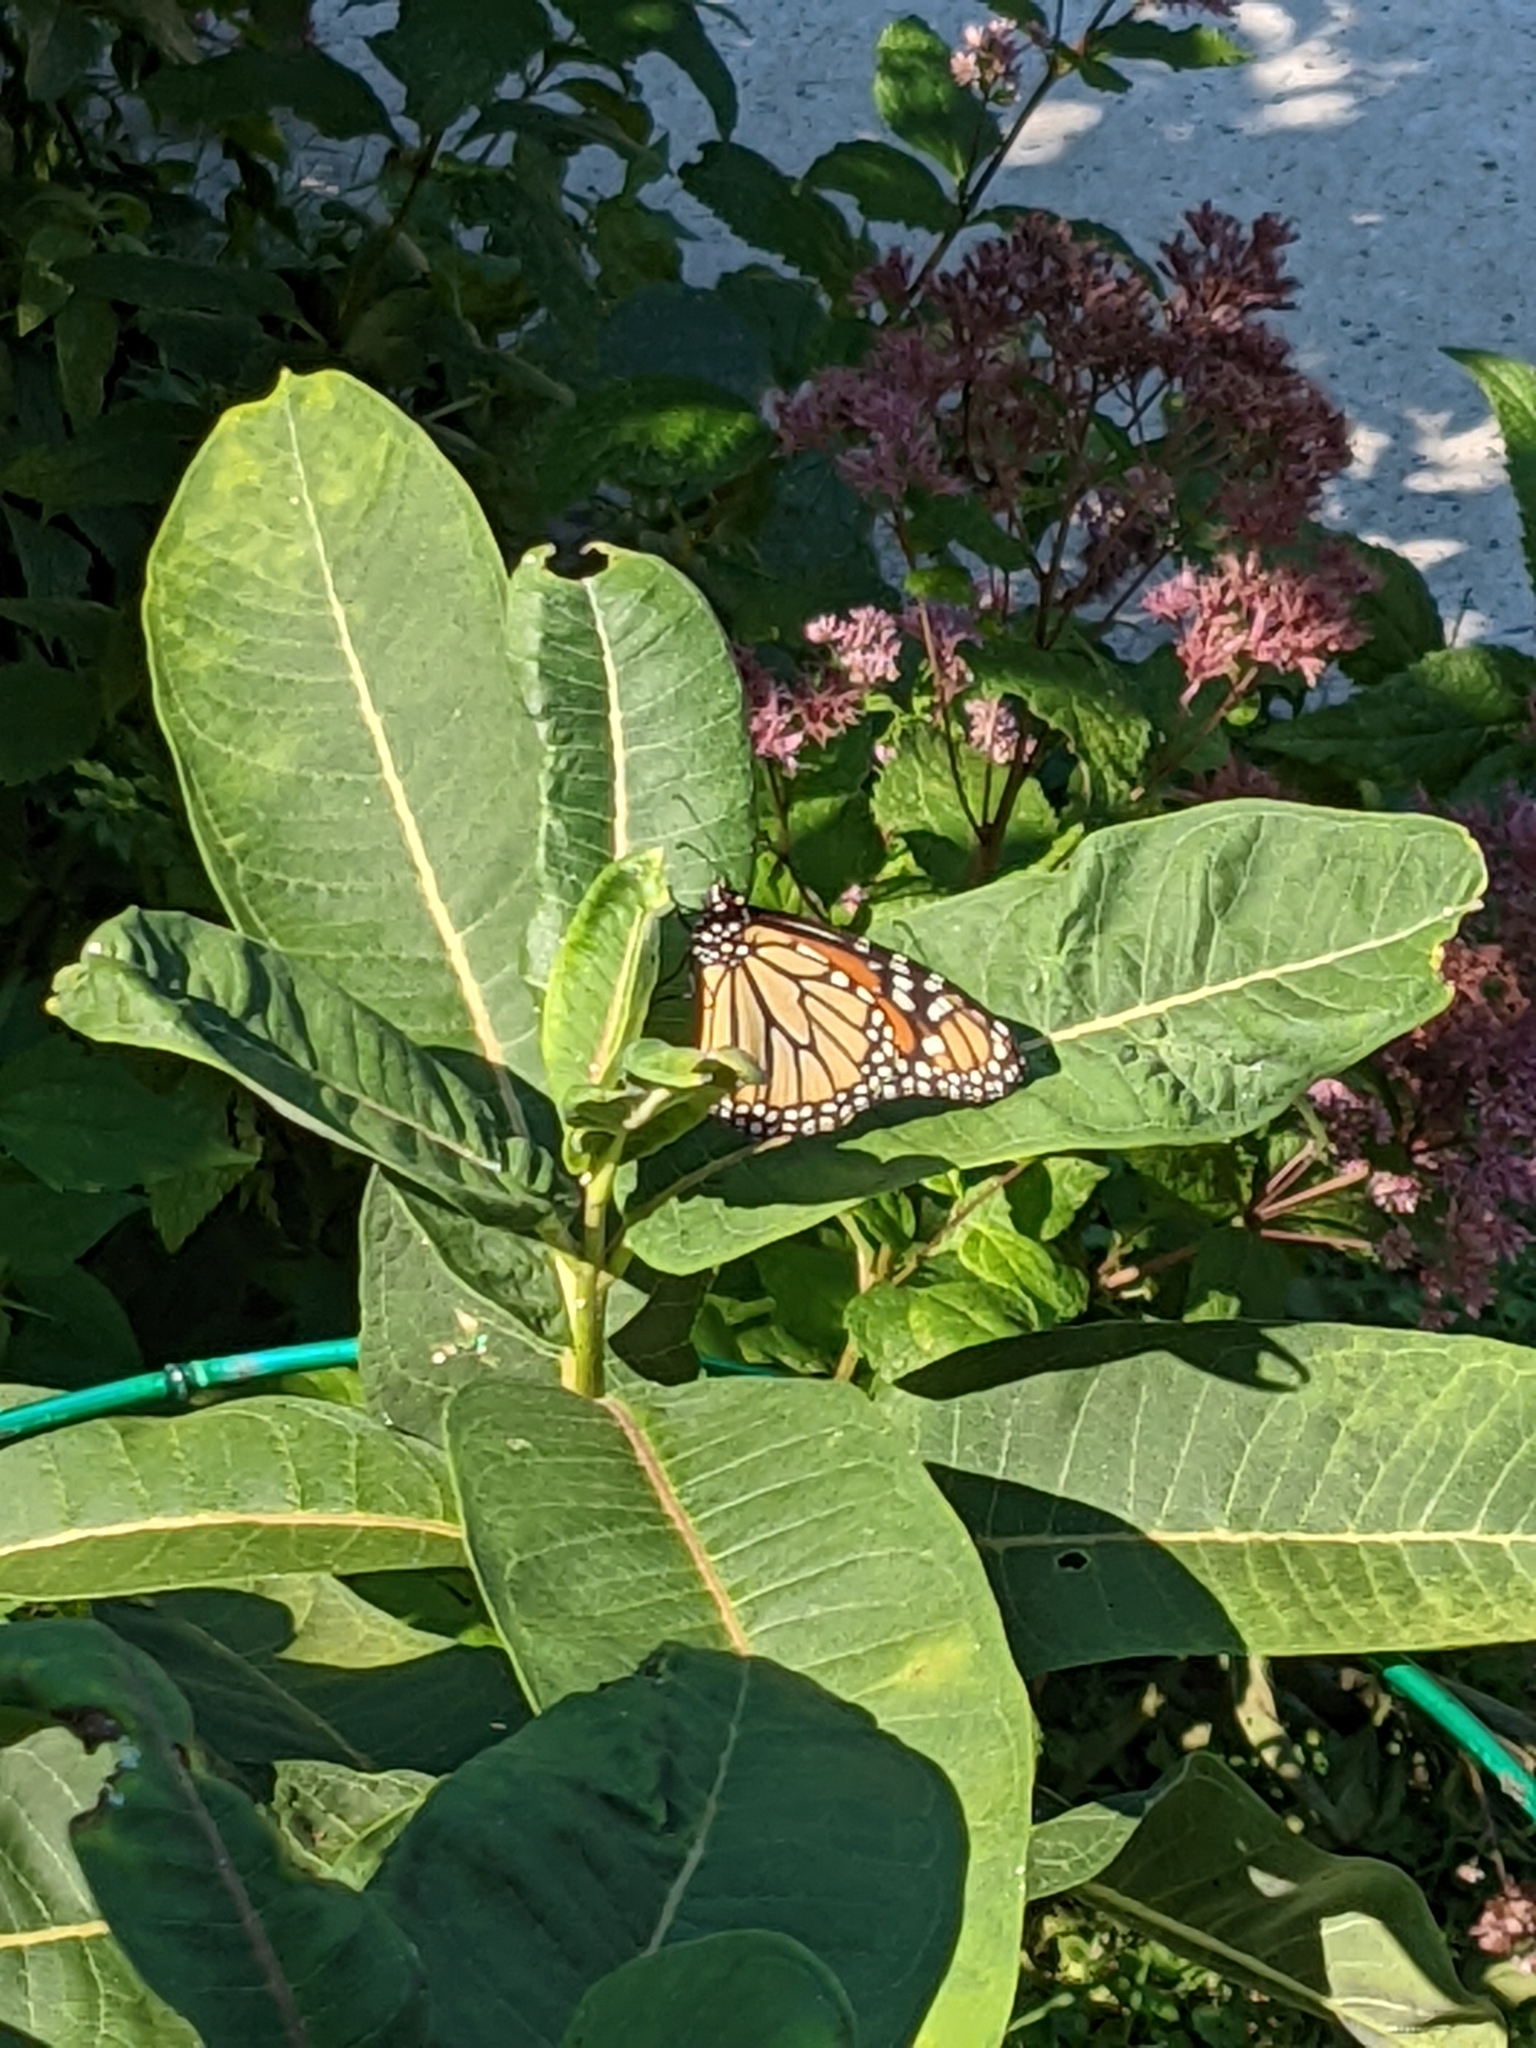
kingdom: Animalia
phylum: Arthropoda
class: Insecta
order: Lepidoptera
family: Nymphalidae
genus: Danaus
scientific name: Danaus plexippus
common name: Monarch
